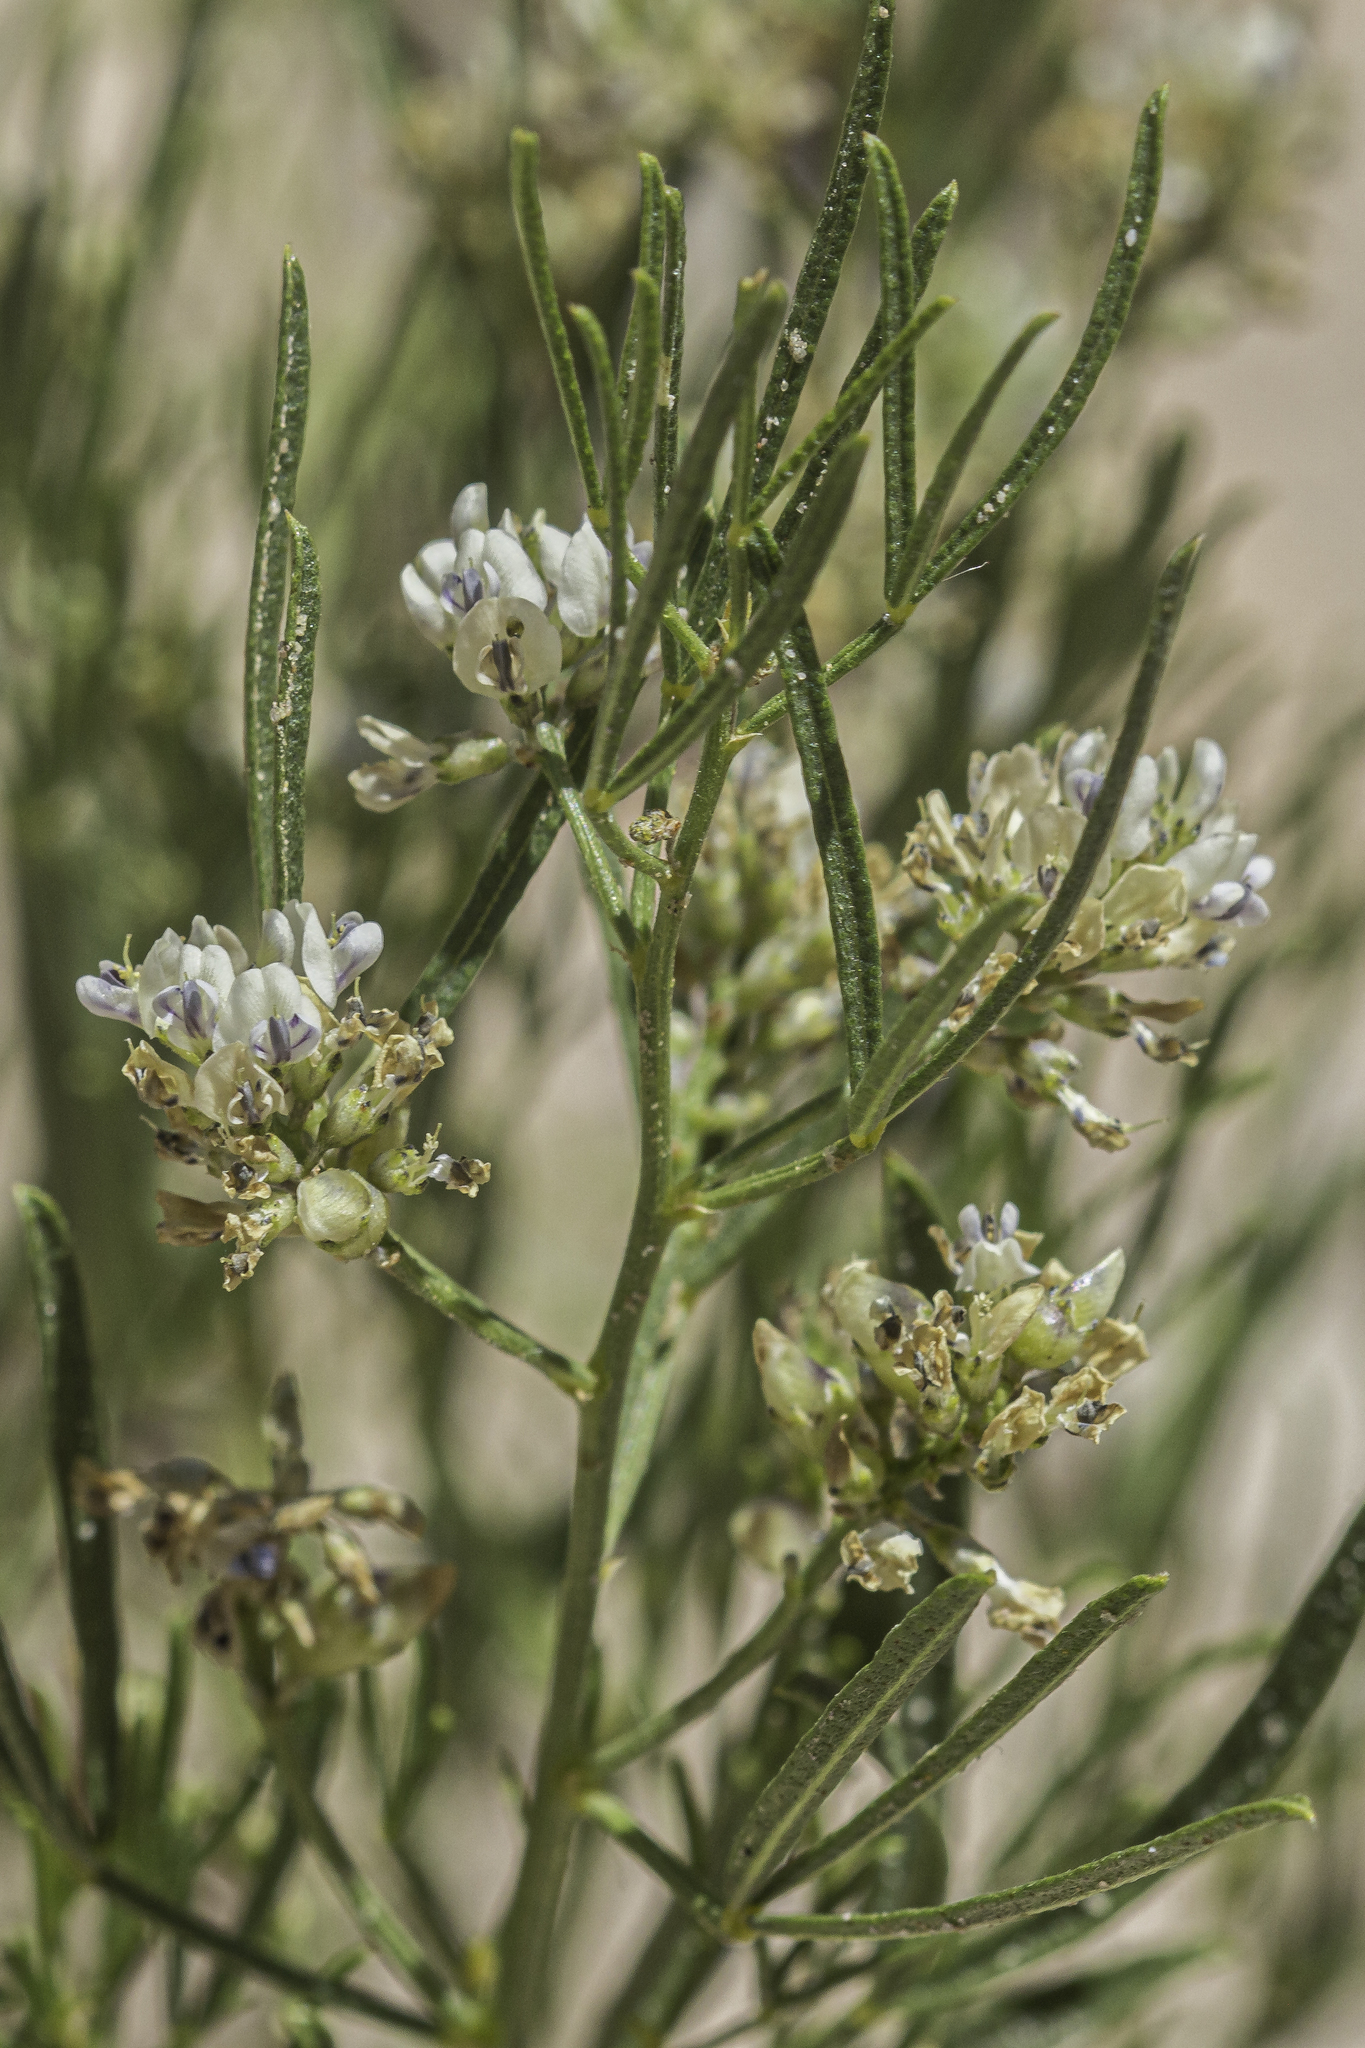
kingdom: Plantae
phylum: Tracheophyta
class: Magnoliopsida
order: Fabales
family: Fabaceae
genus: Ladeania
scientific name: Ladeania lanceolata
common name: Dune scurf-pea
